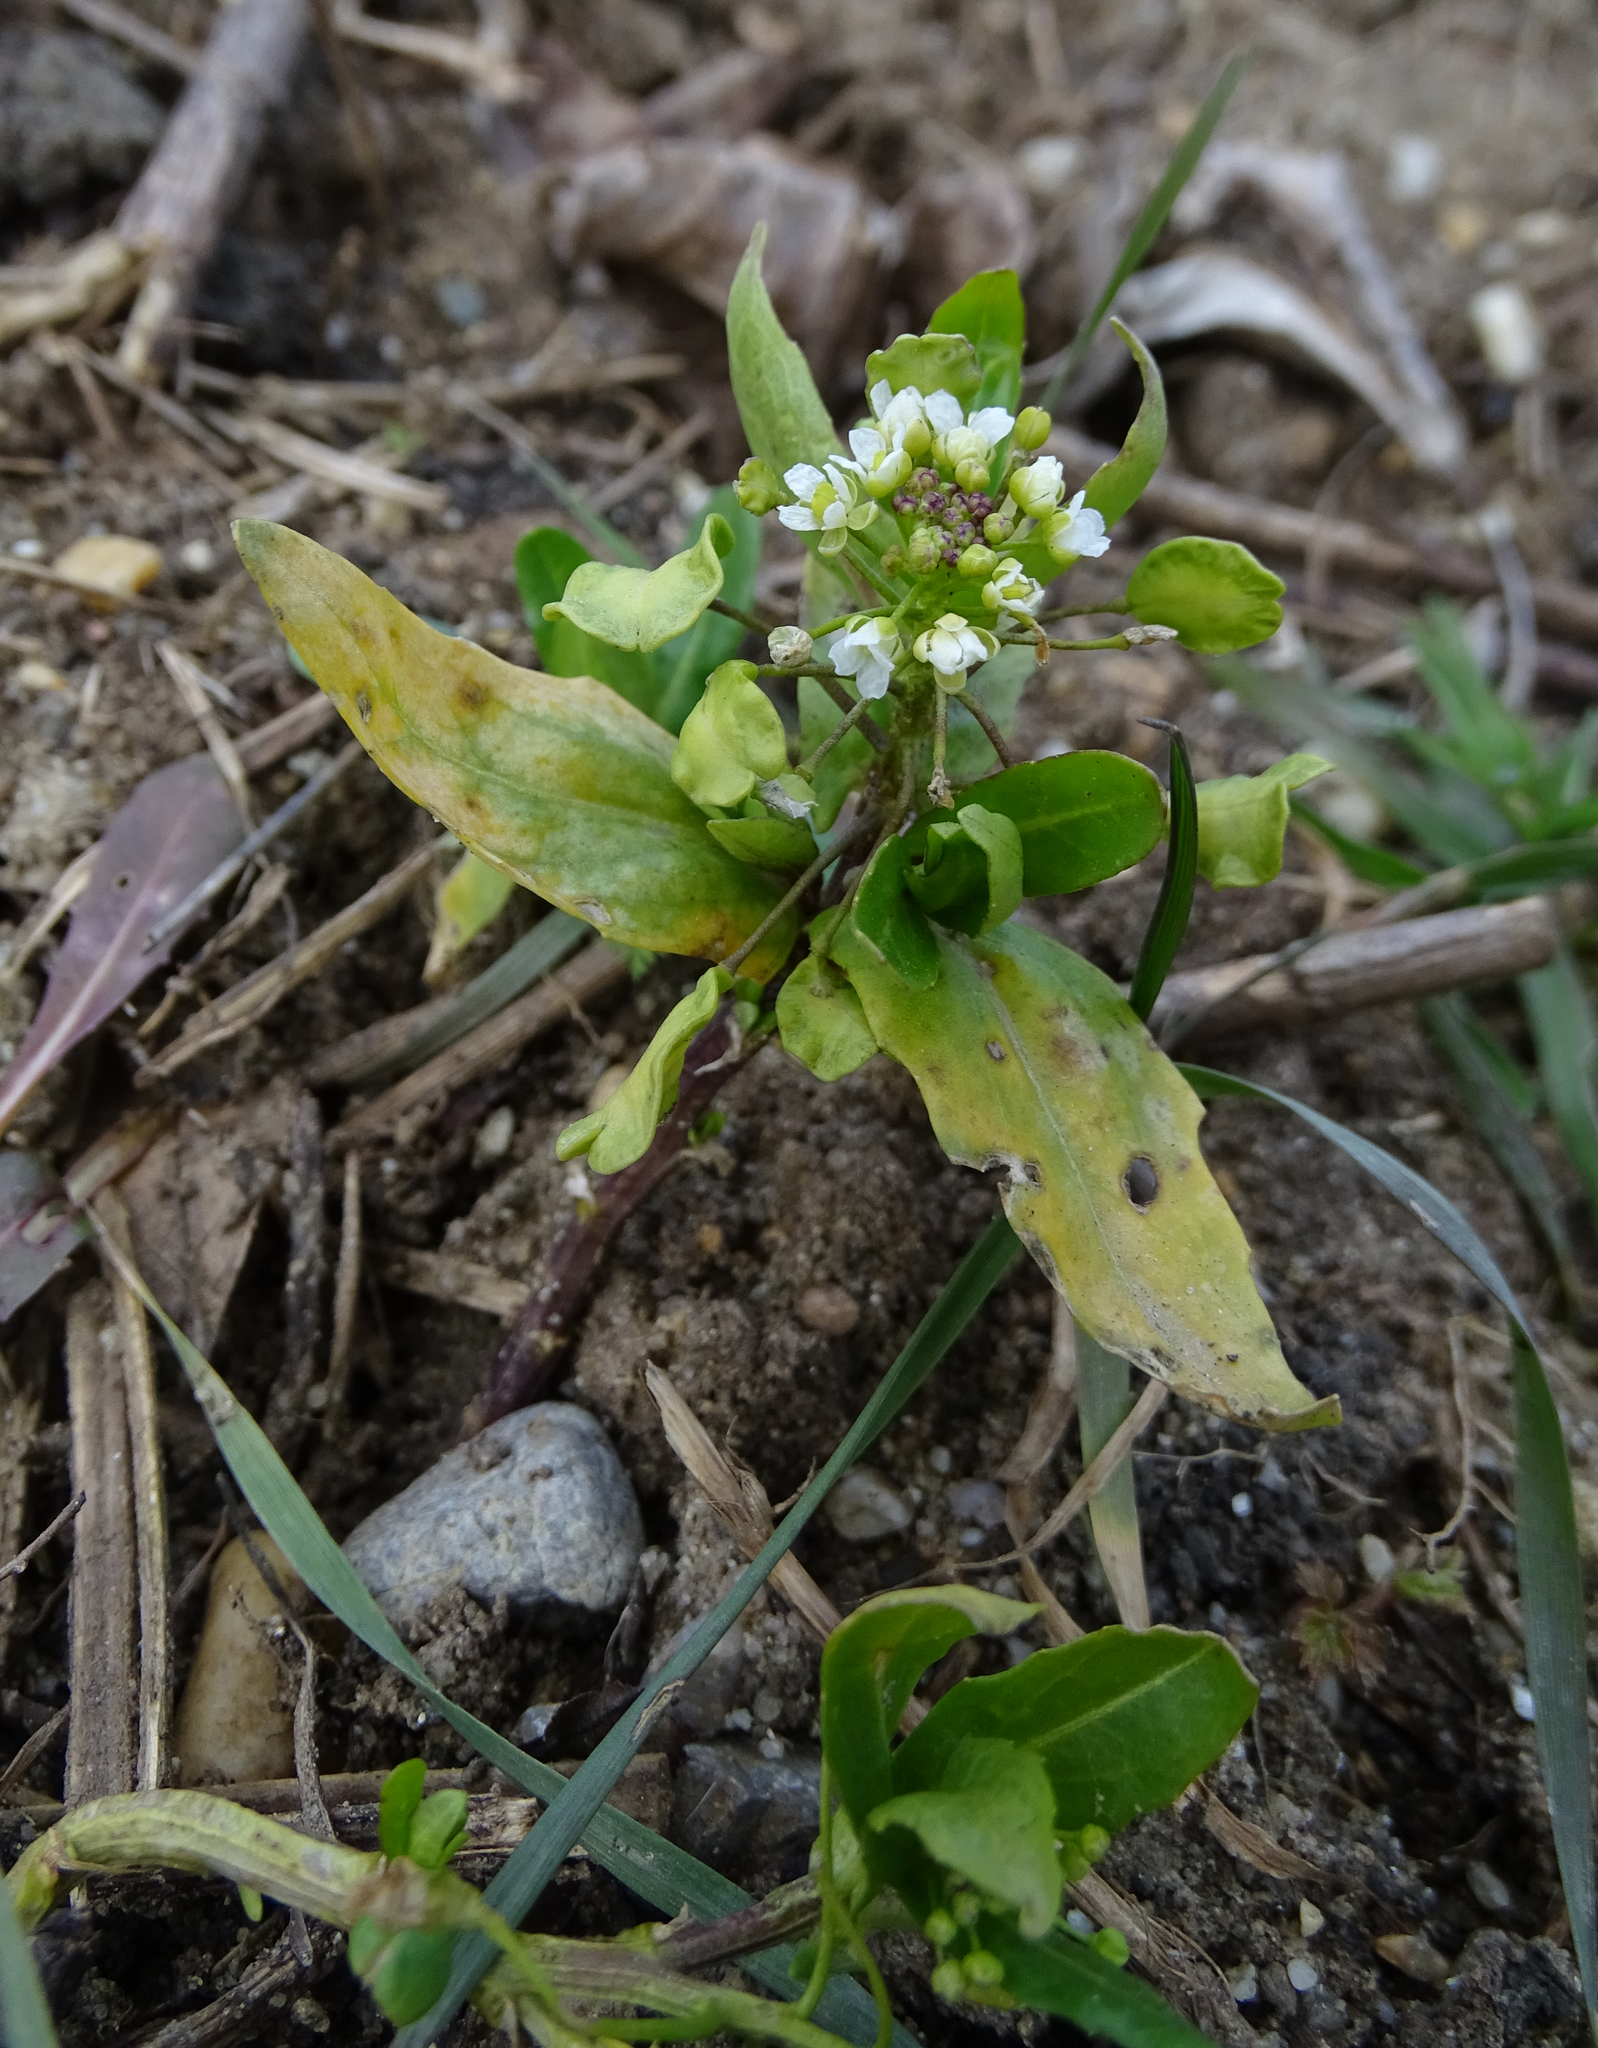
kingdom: Plantae
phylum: Tracheophyta
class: Magnoliopsida
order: Brassicales
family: Brassicaceae
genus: Thlaspi
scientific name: Thlaspi arvense
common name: Field pennycress
